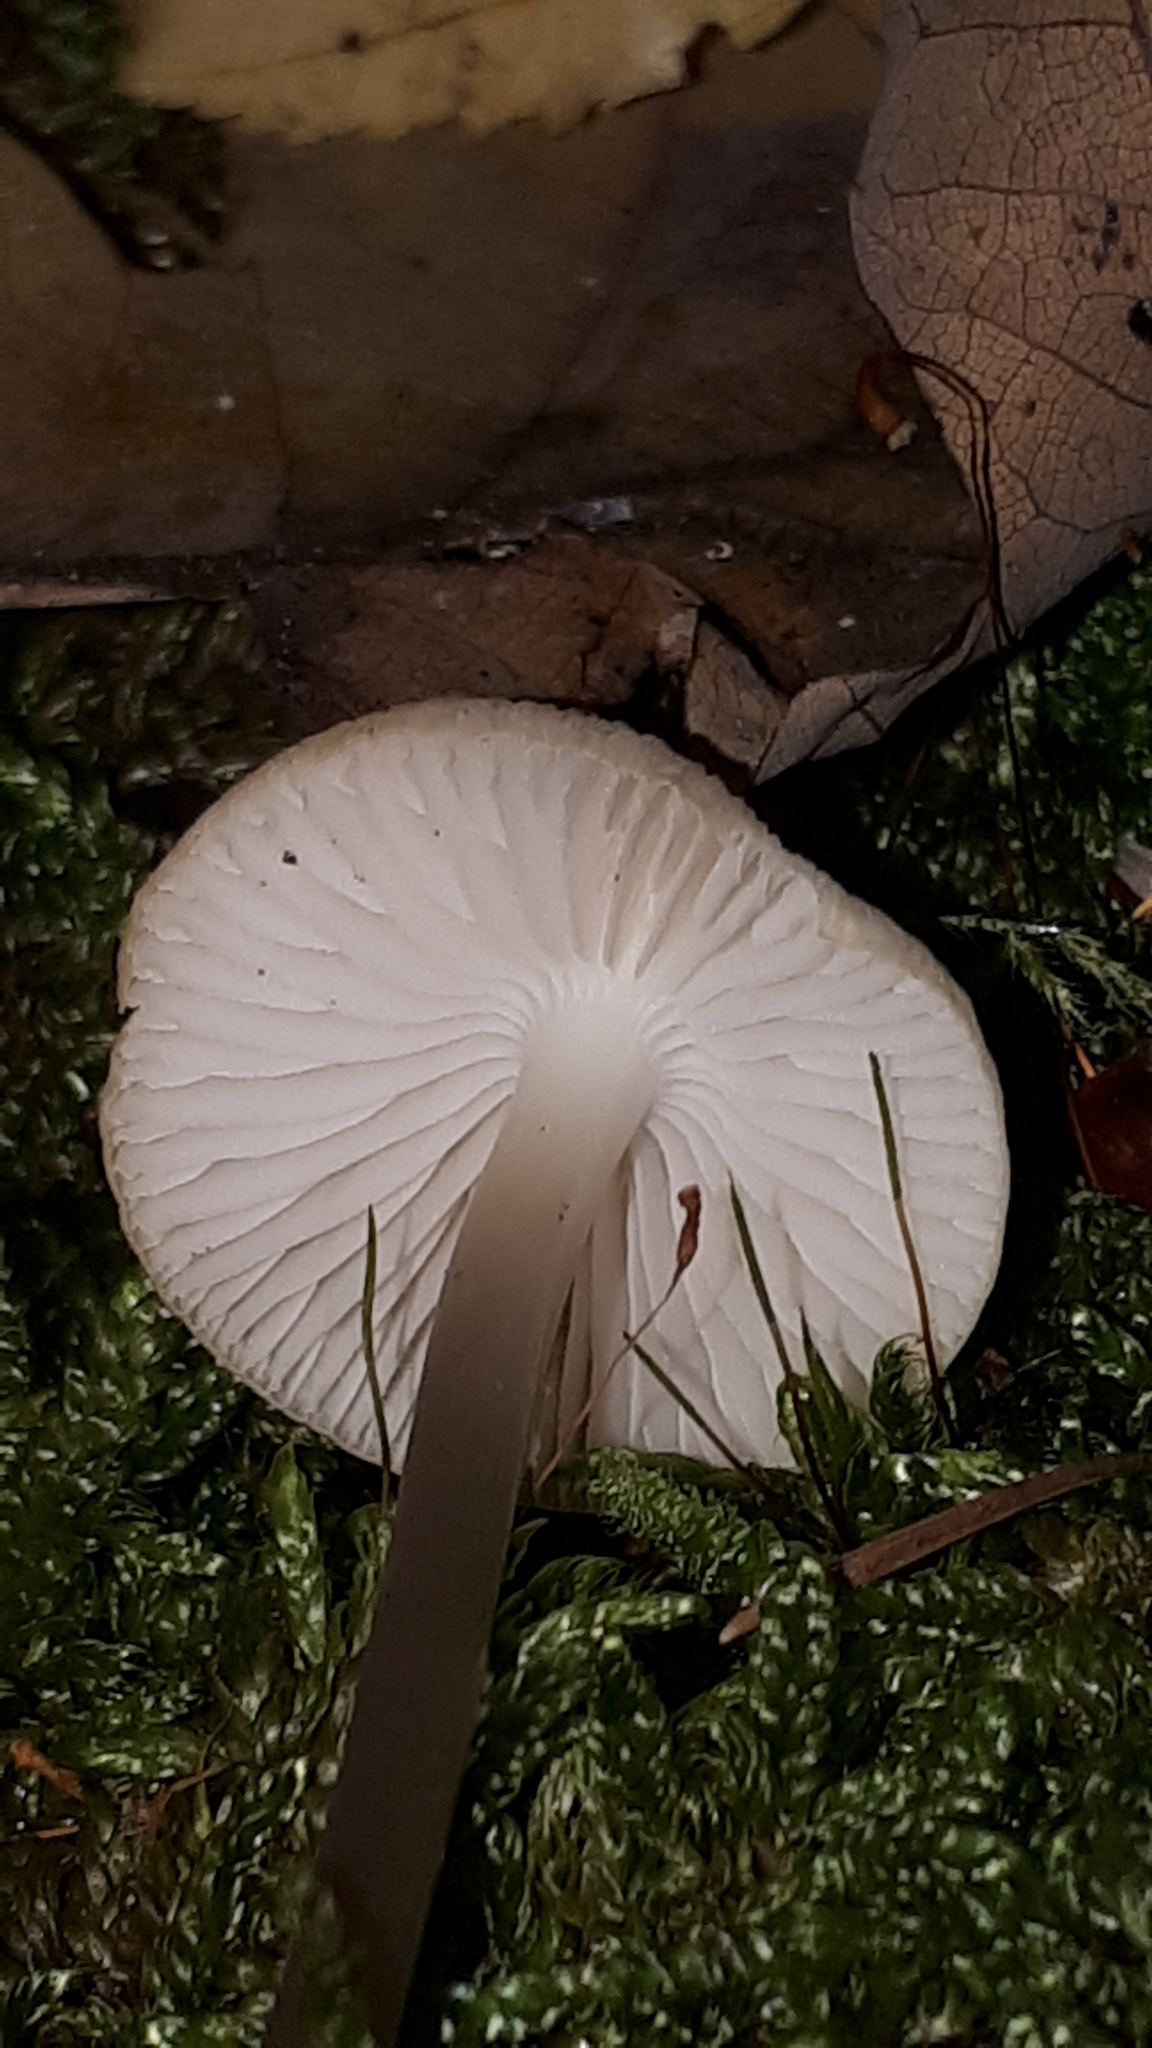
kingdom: Fungi
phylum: Basidiomycota
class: Agaricomycetes
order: Agaricales
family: Mycenaceae
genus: Mycena
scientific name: Mycena galericulata
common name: Bonnet mycena
